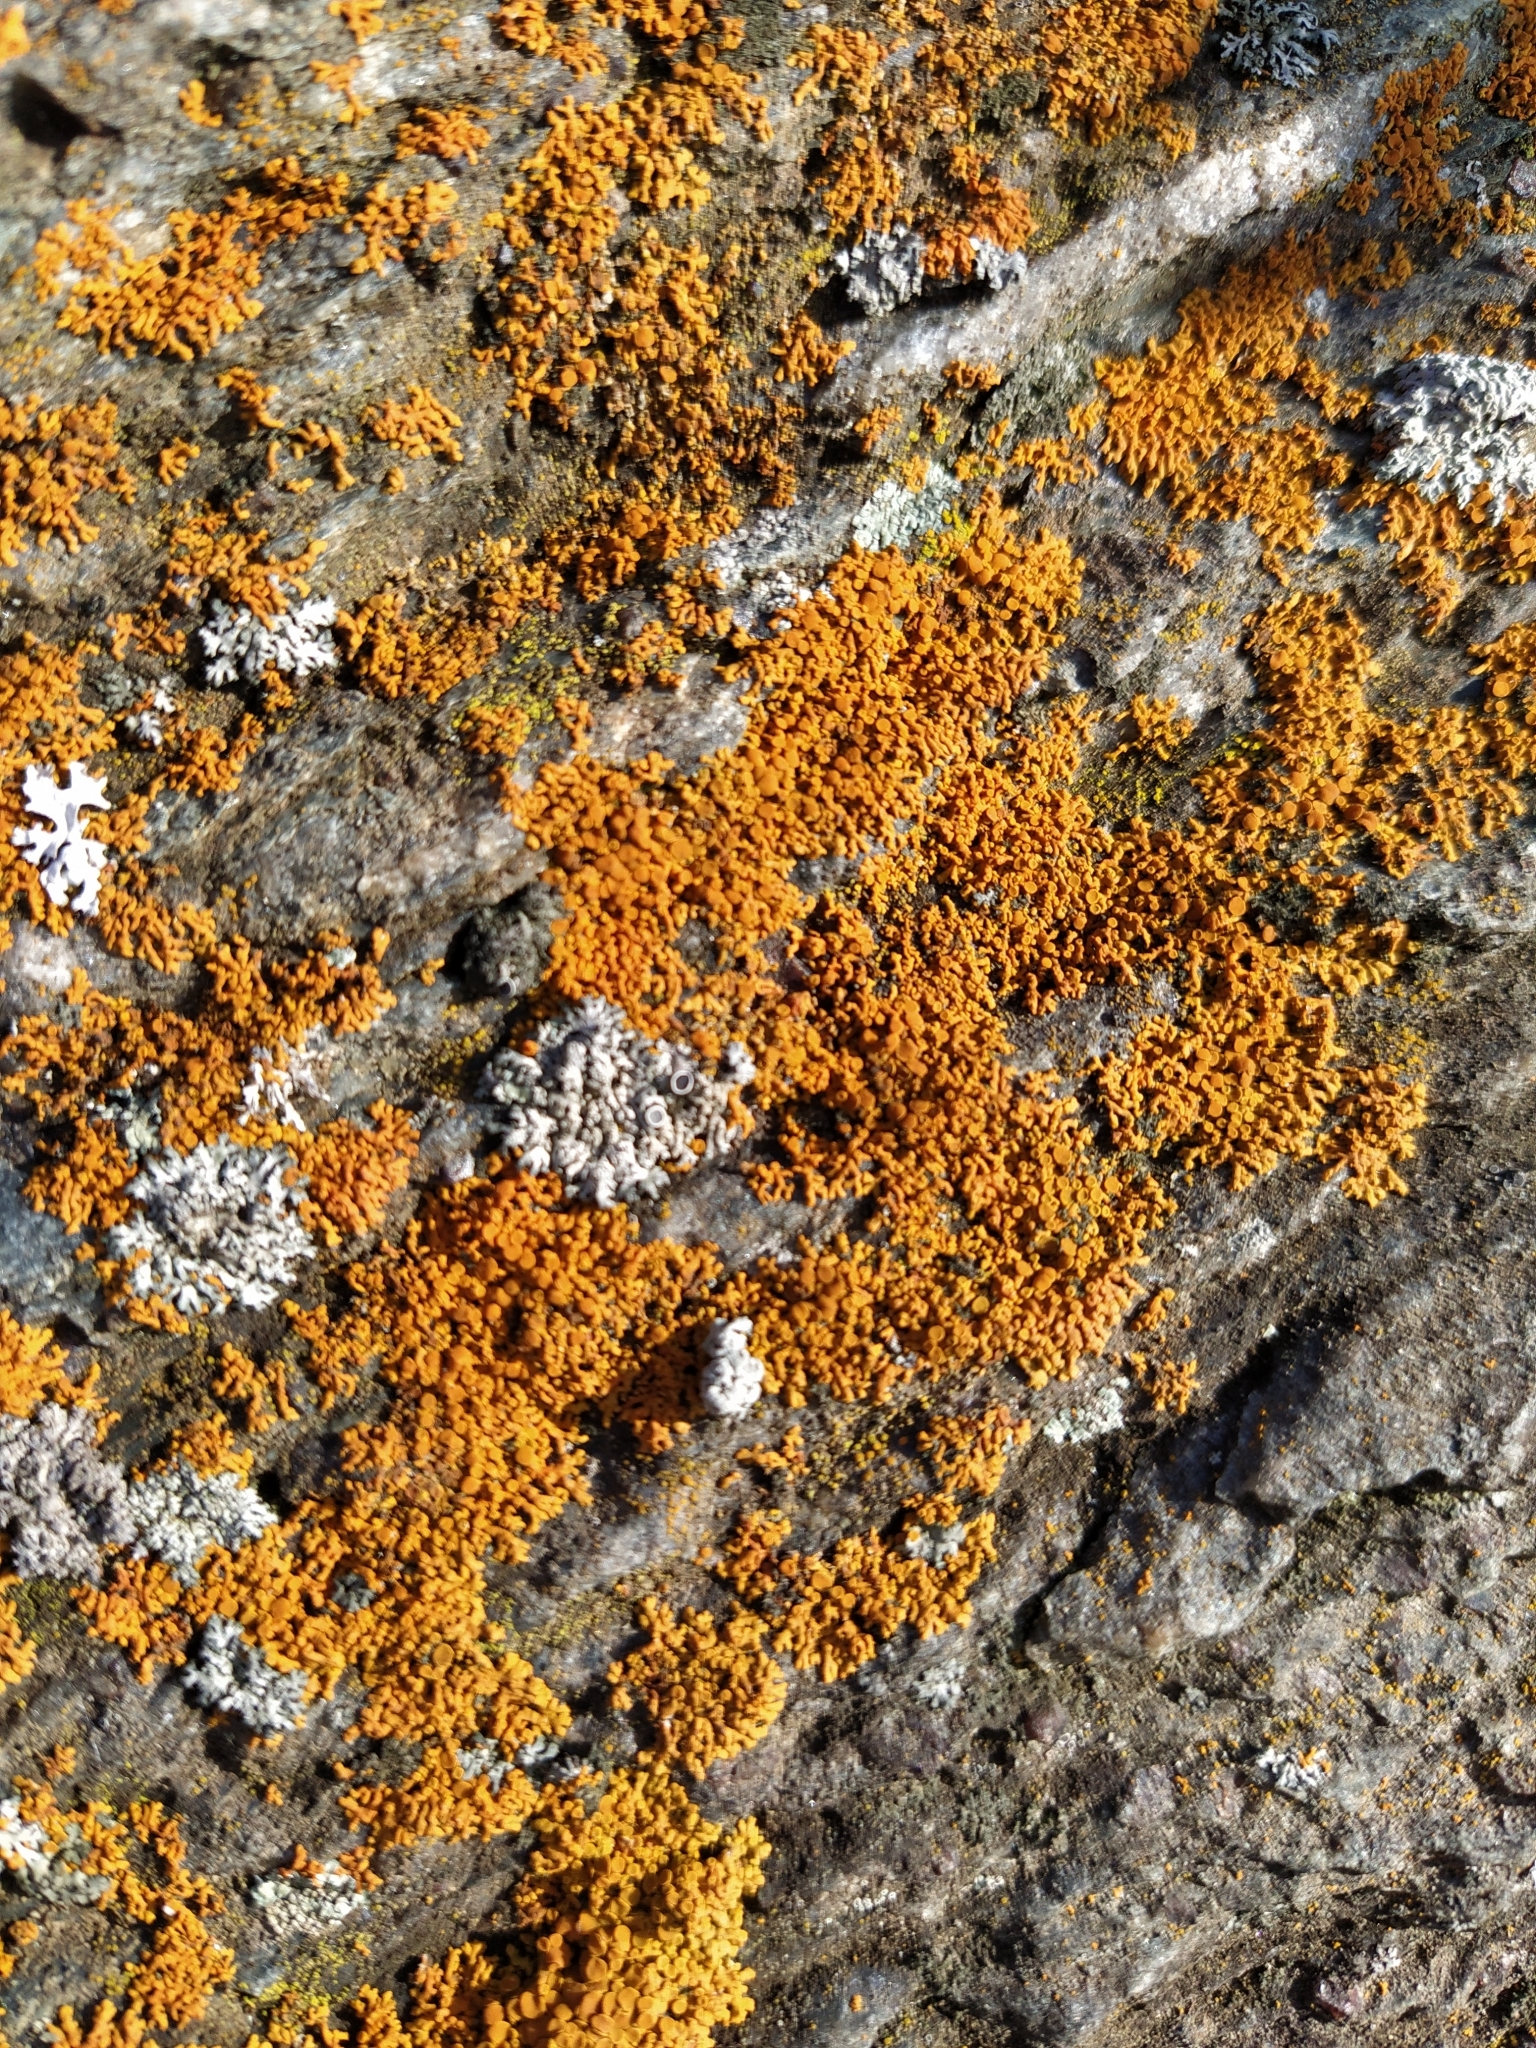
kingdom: Fungi
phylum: Ascomycota
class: Lecanoromycetes
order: Teloschistales
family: Teloschistaceae
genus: Xanthoria
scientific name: Xanthoria parietina
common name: Common orange lichen
